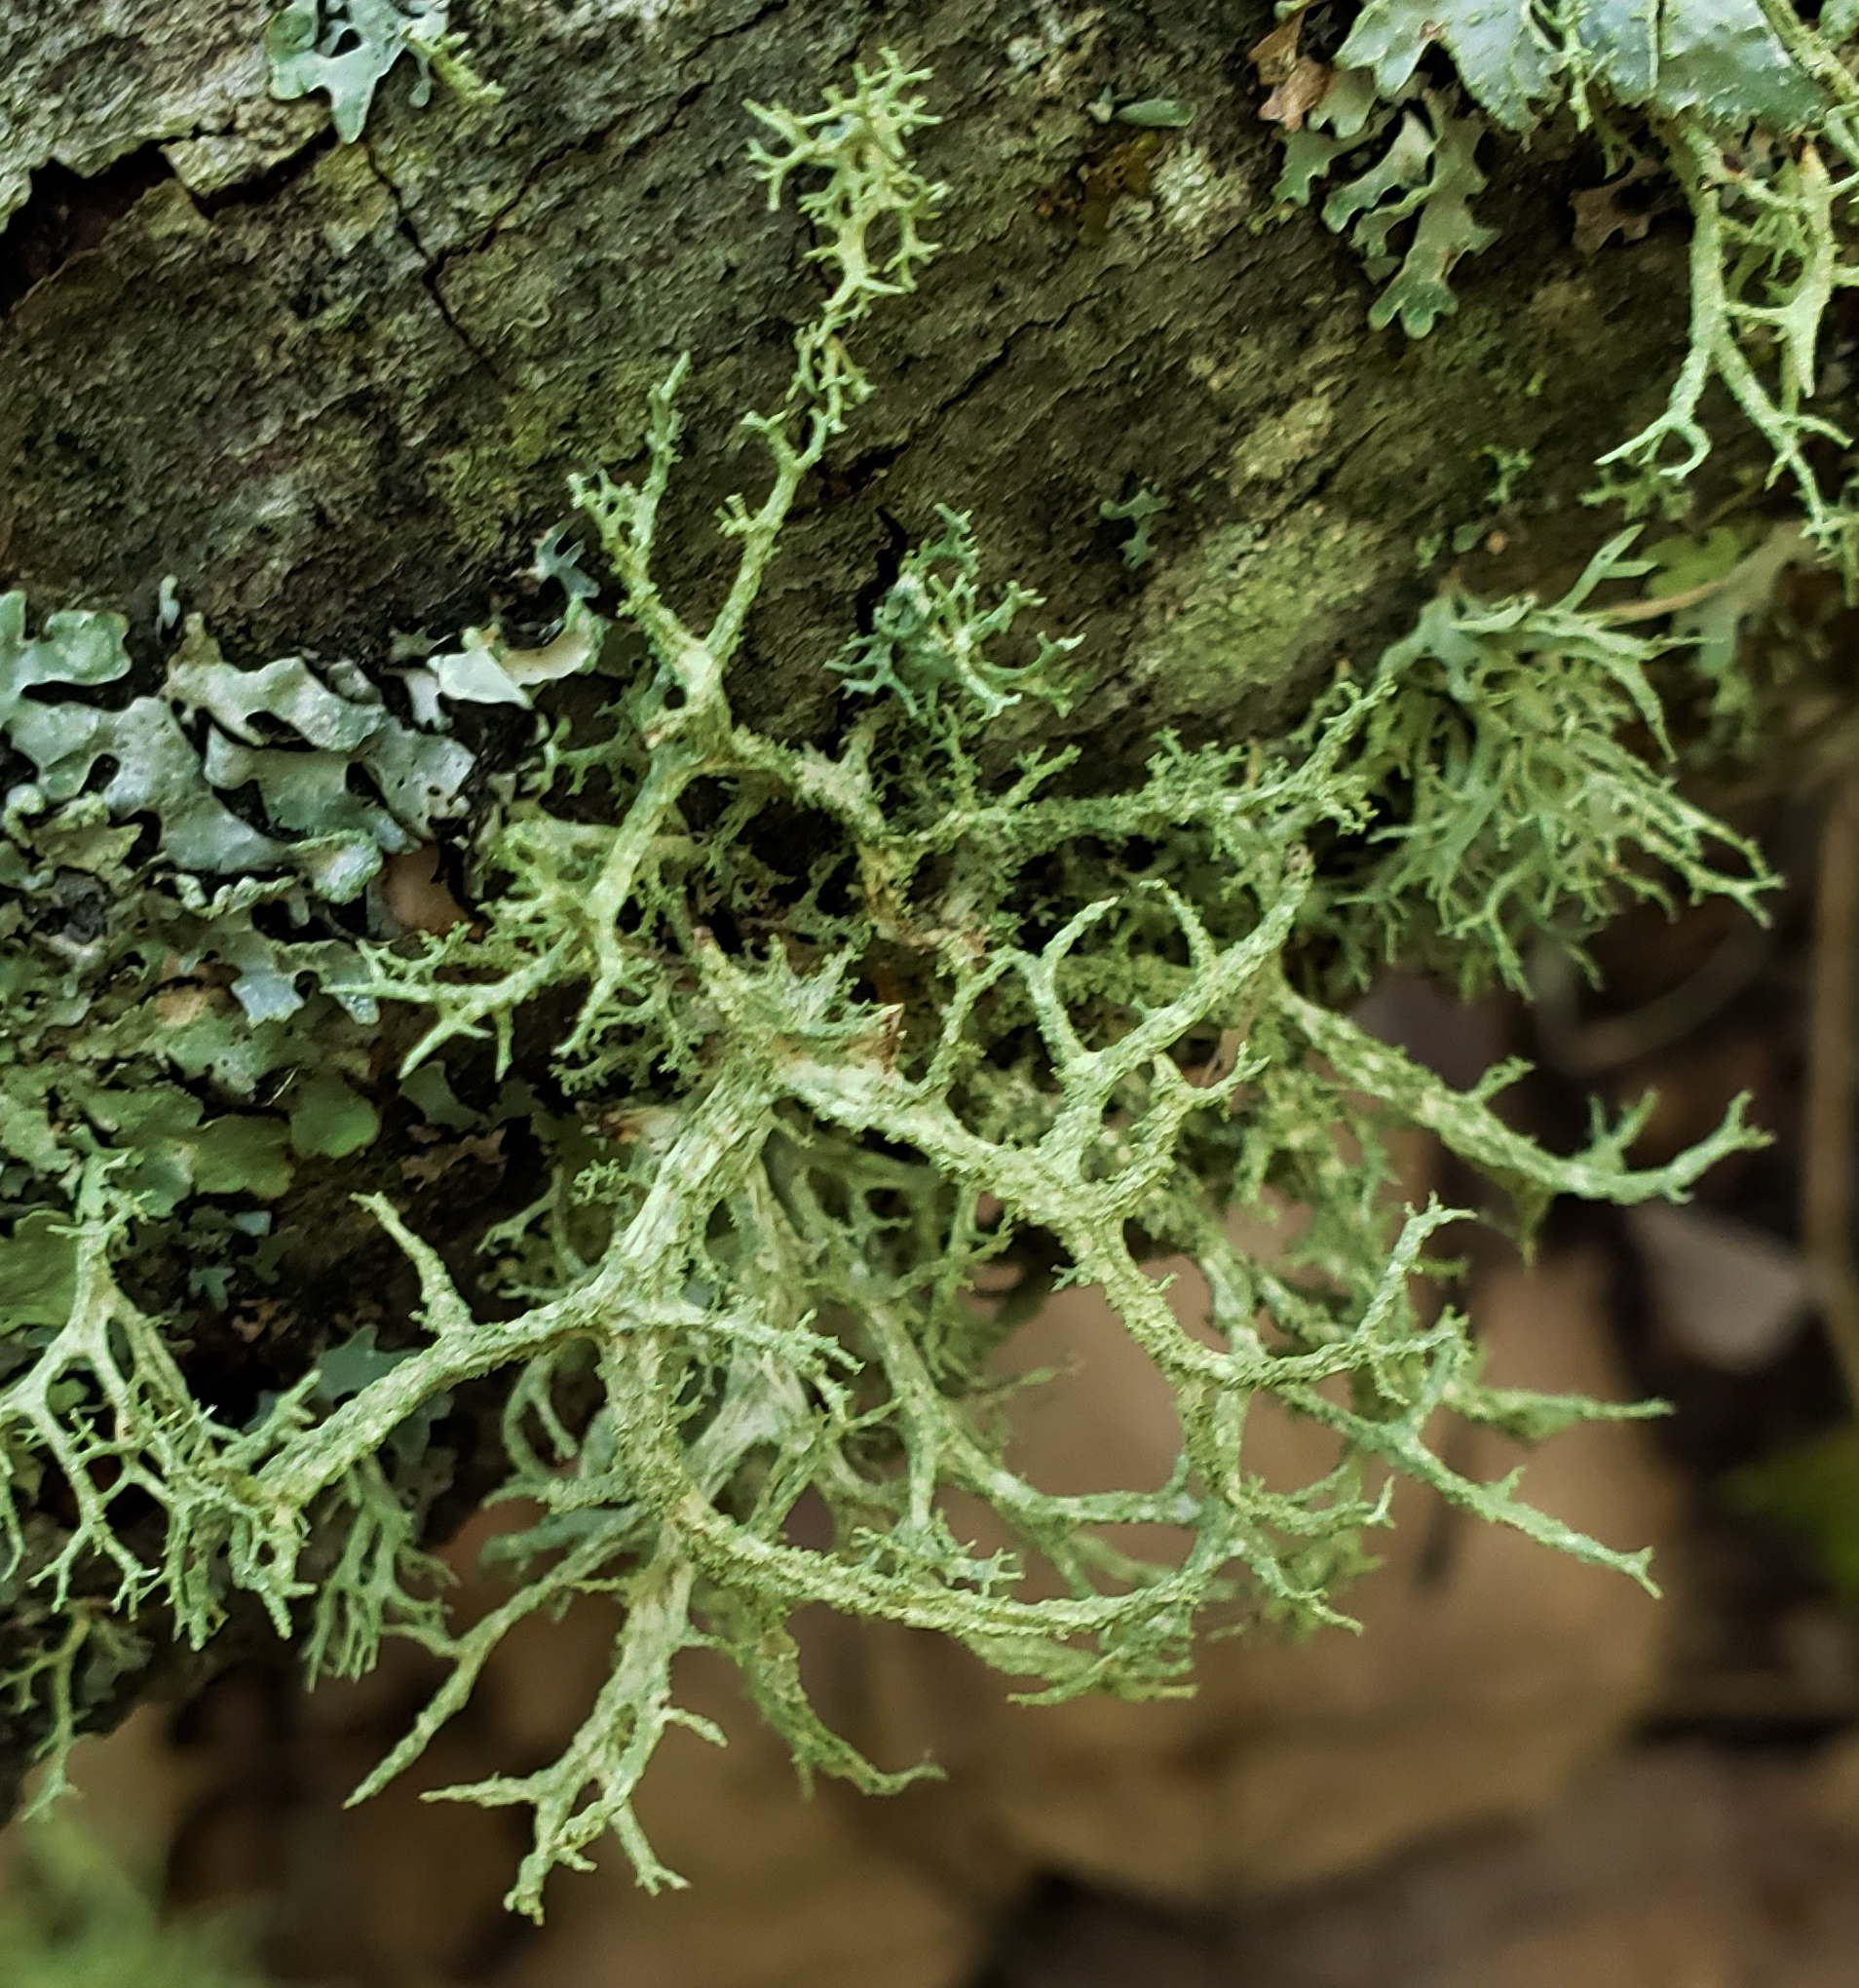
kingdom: Fungi
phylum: Ascomycota
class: Lecanoromycetes
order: Lecanorales
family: Parmeliaceae
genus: Evernia
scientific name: Evernia mesomorpha
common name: Boreal oak moss lichen
